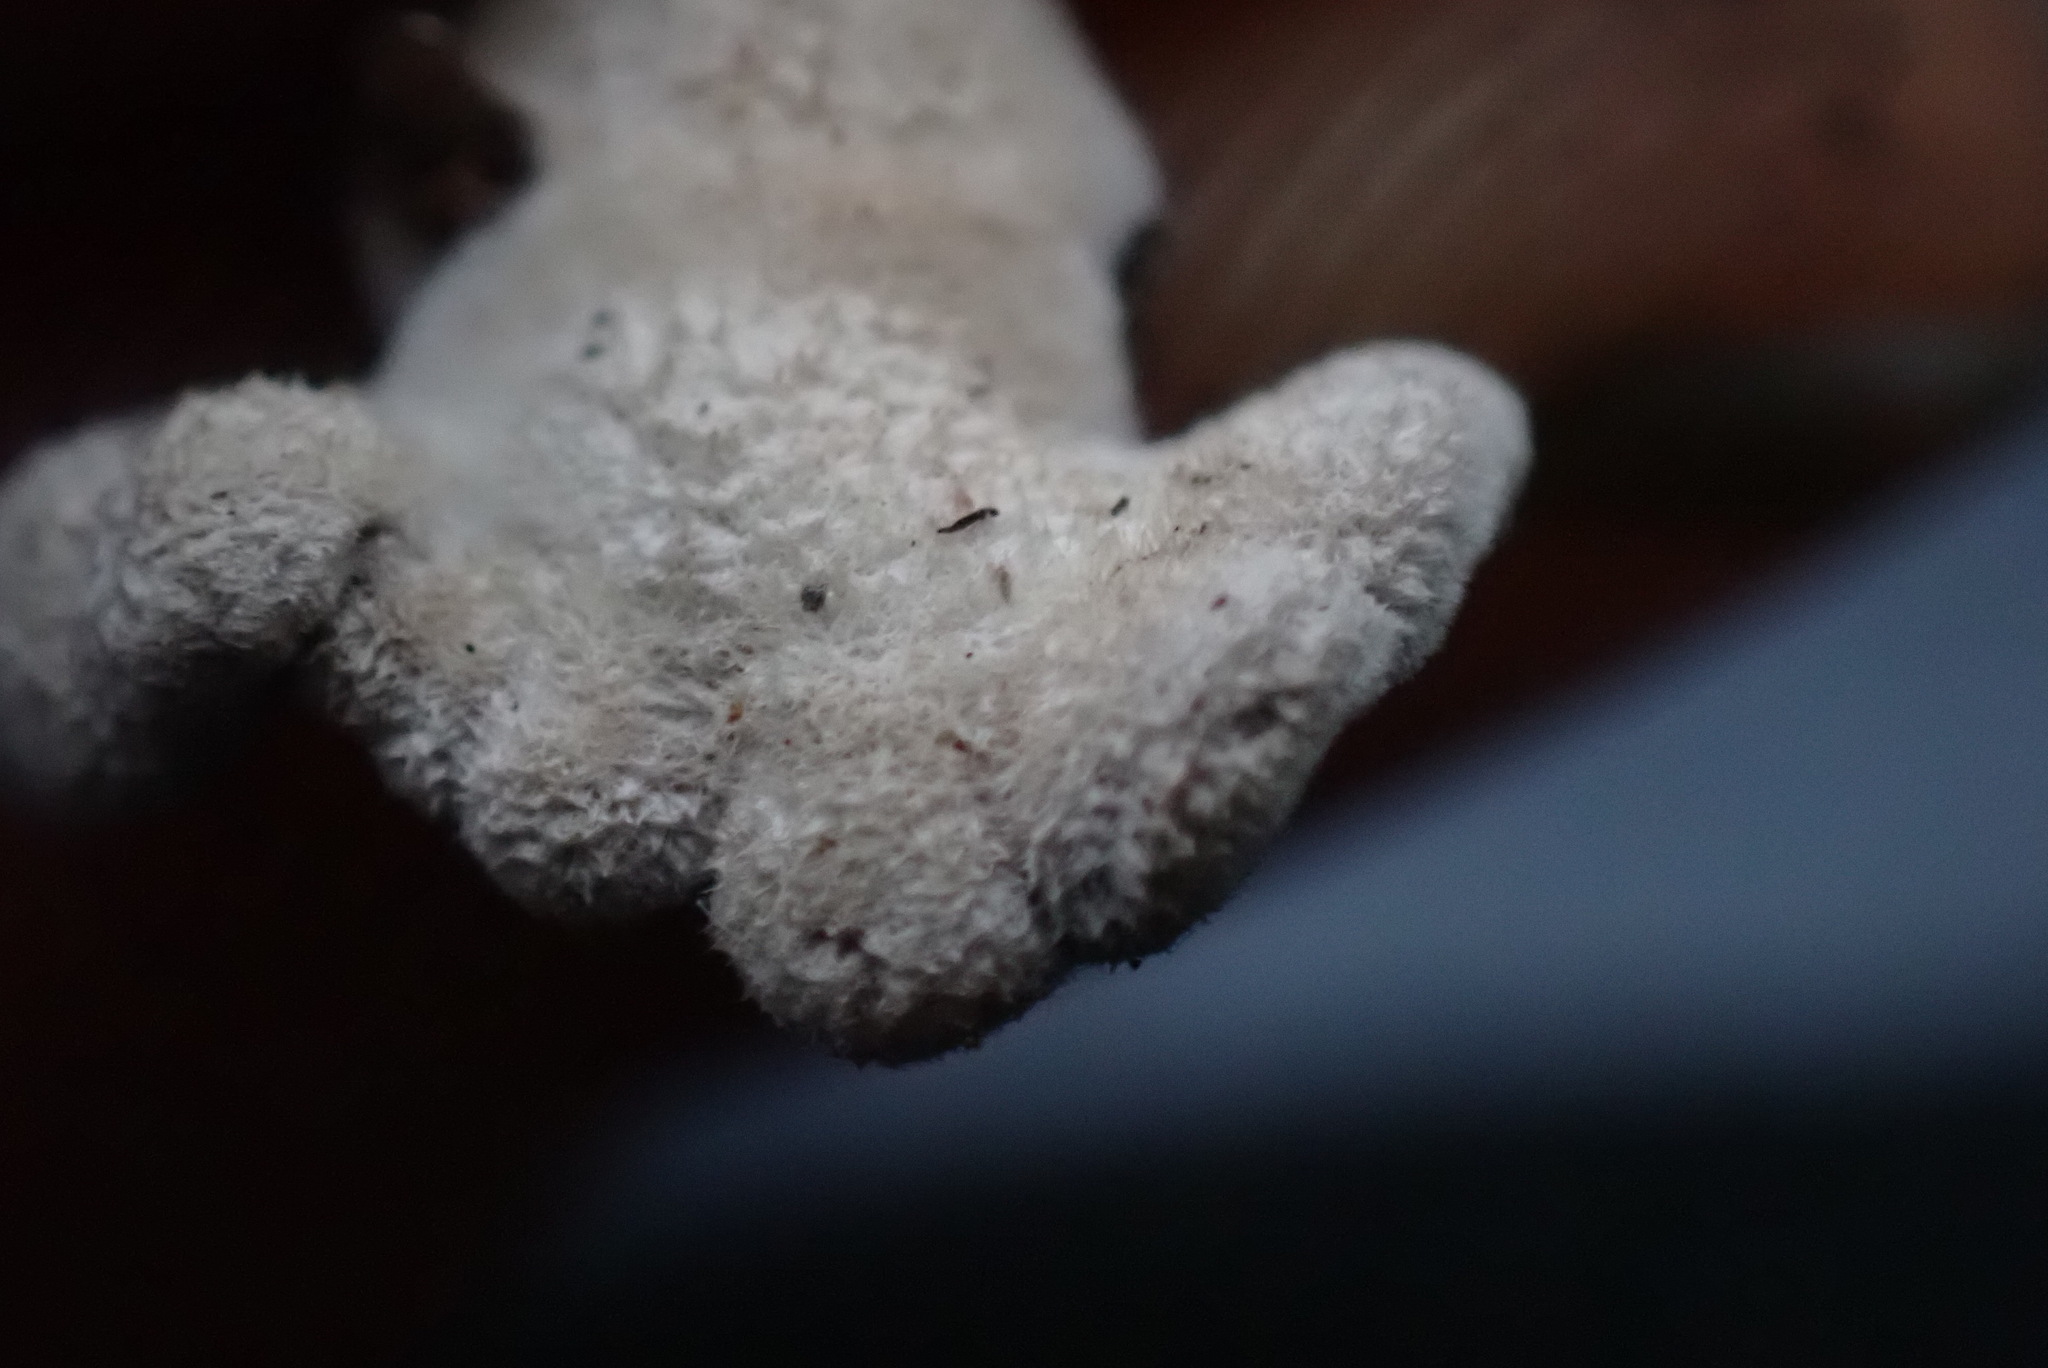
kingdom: Fungi
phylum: Basidiomycota
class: Agaricomycetes
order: Agaricales
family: Schizophyllaceae
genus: Schizophyllum
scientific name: Schizophyllum commune
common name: Common porecrust
